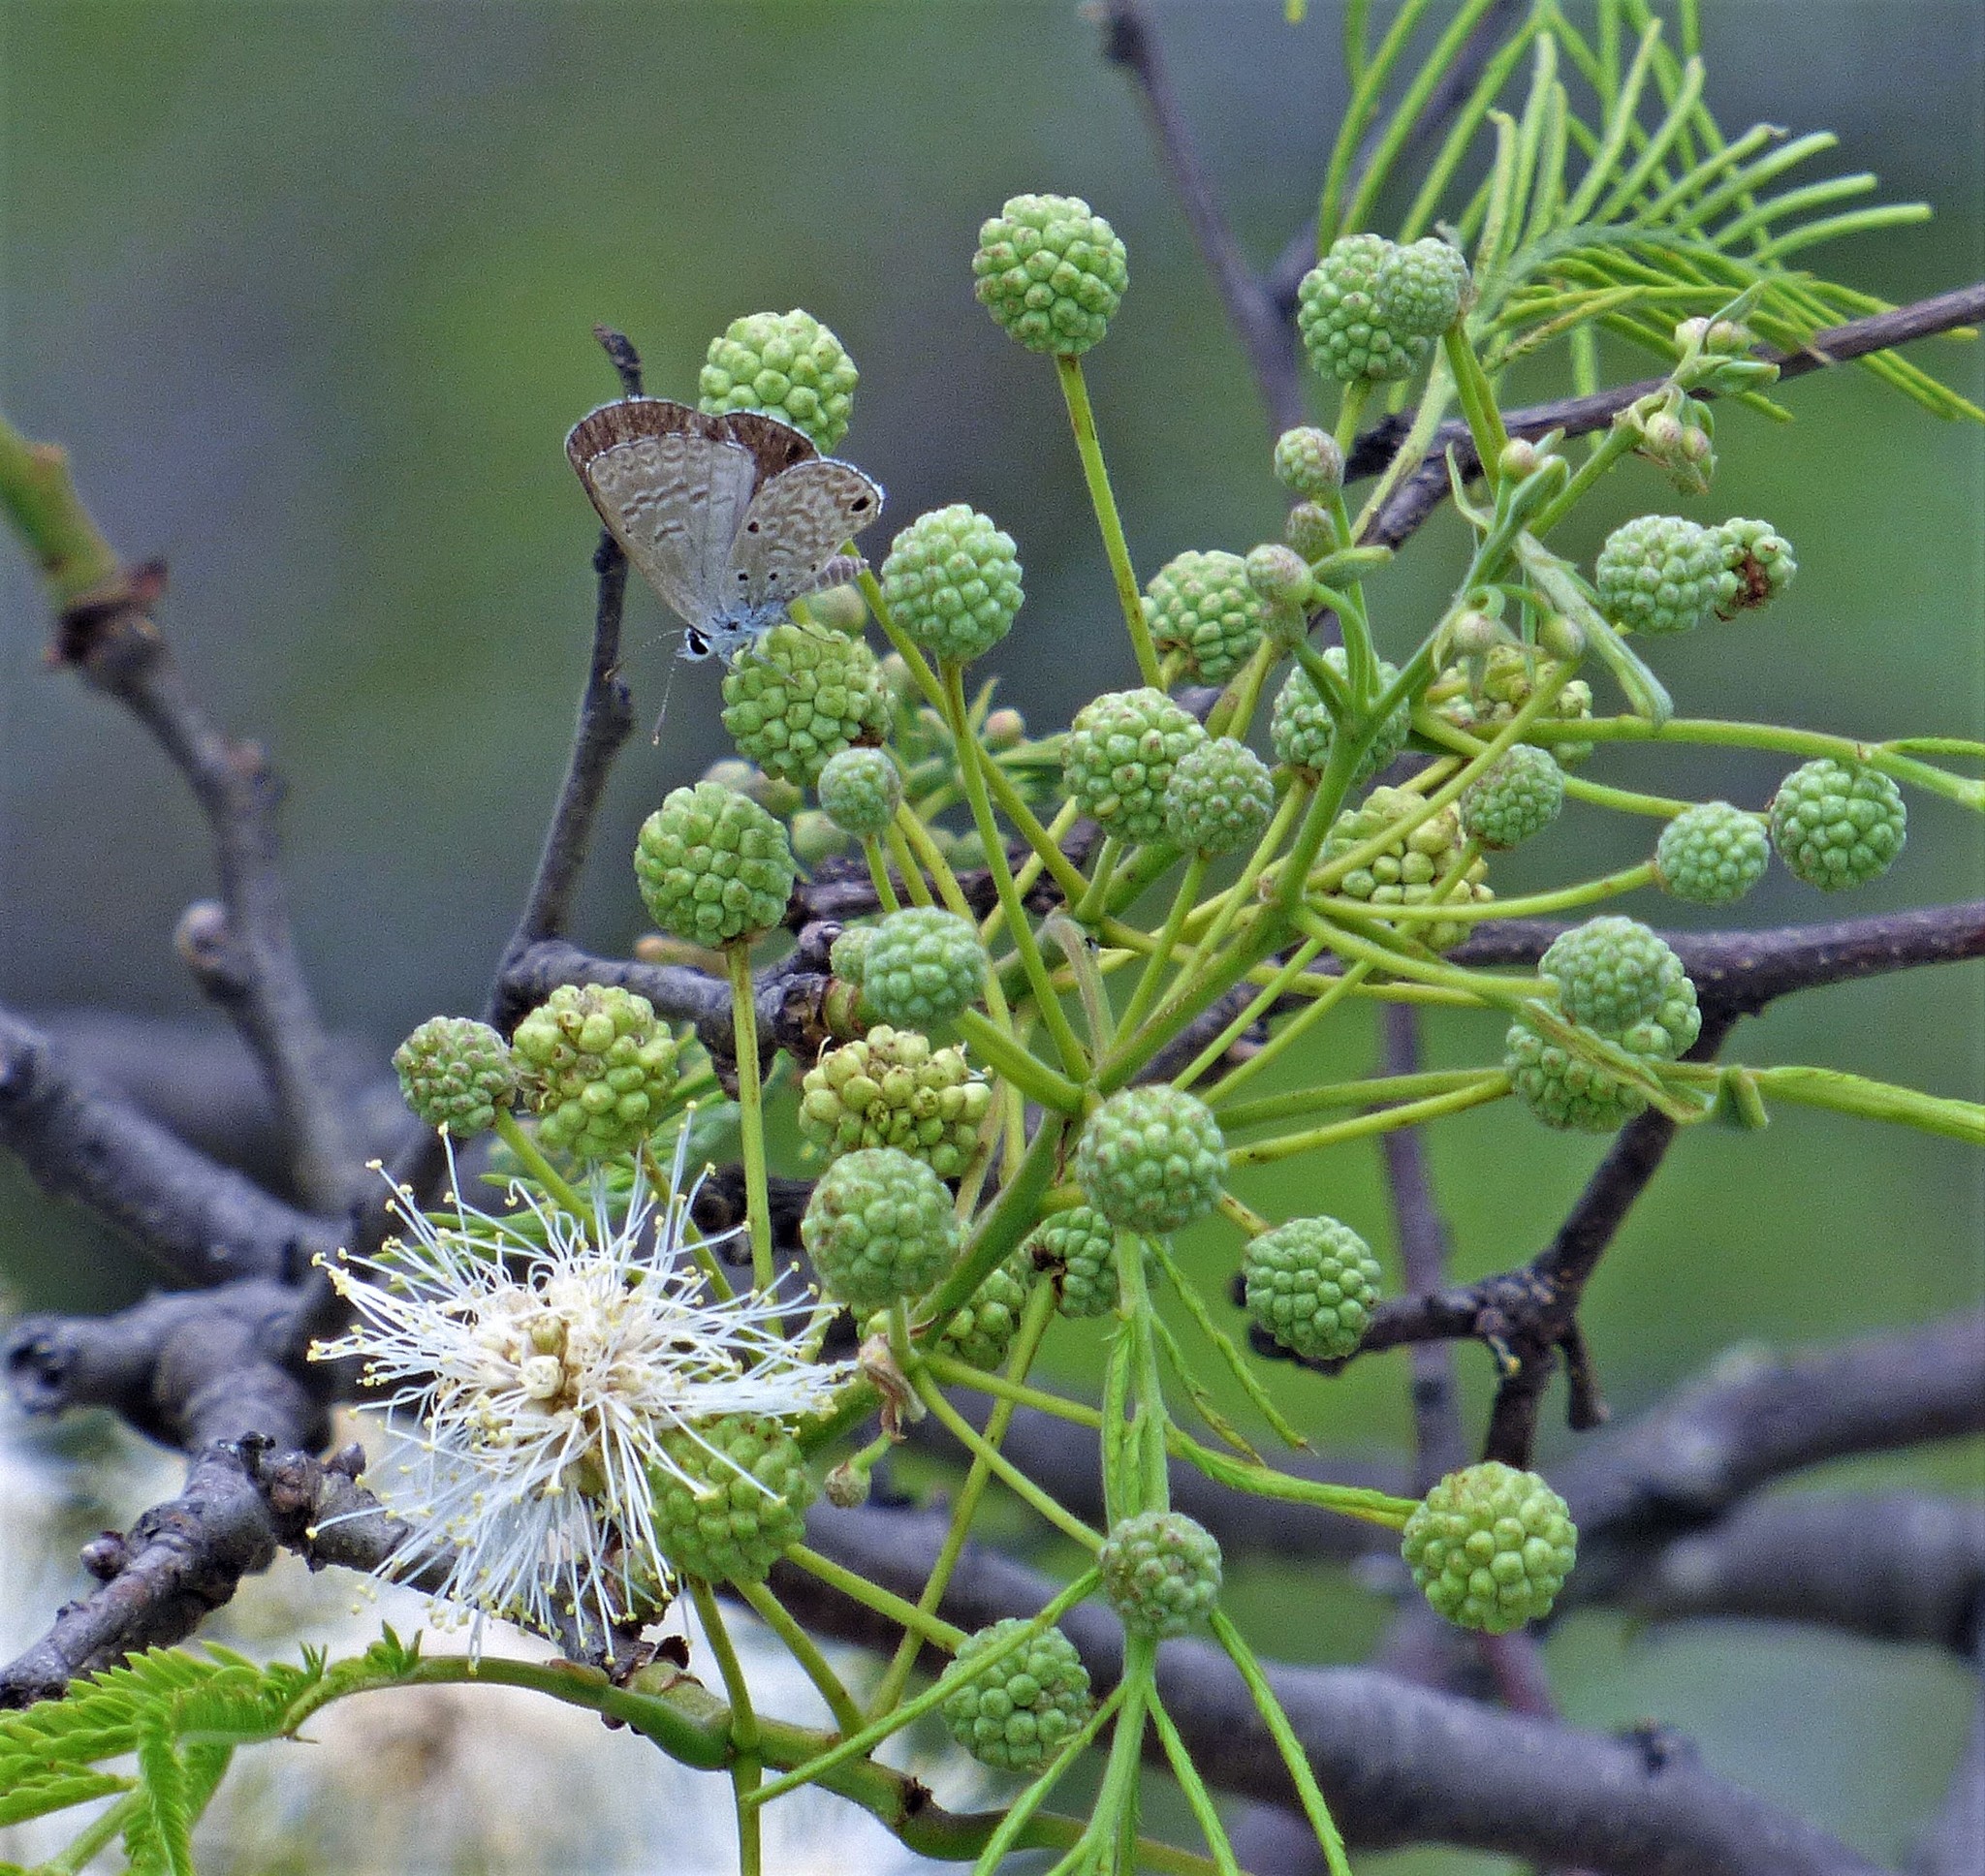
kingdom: Plantae
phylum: Tracheophyta
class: Magnoliopsida
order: Fabales
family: Fabaceae
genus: Anadenanthera
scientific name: Anadenanthera colubrina
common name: Curupay
